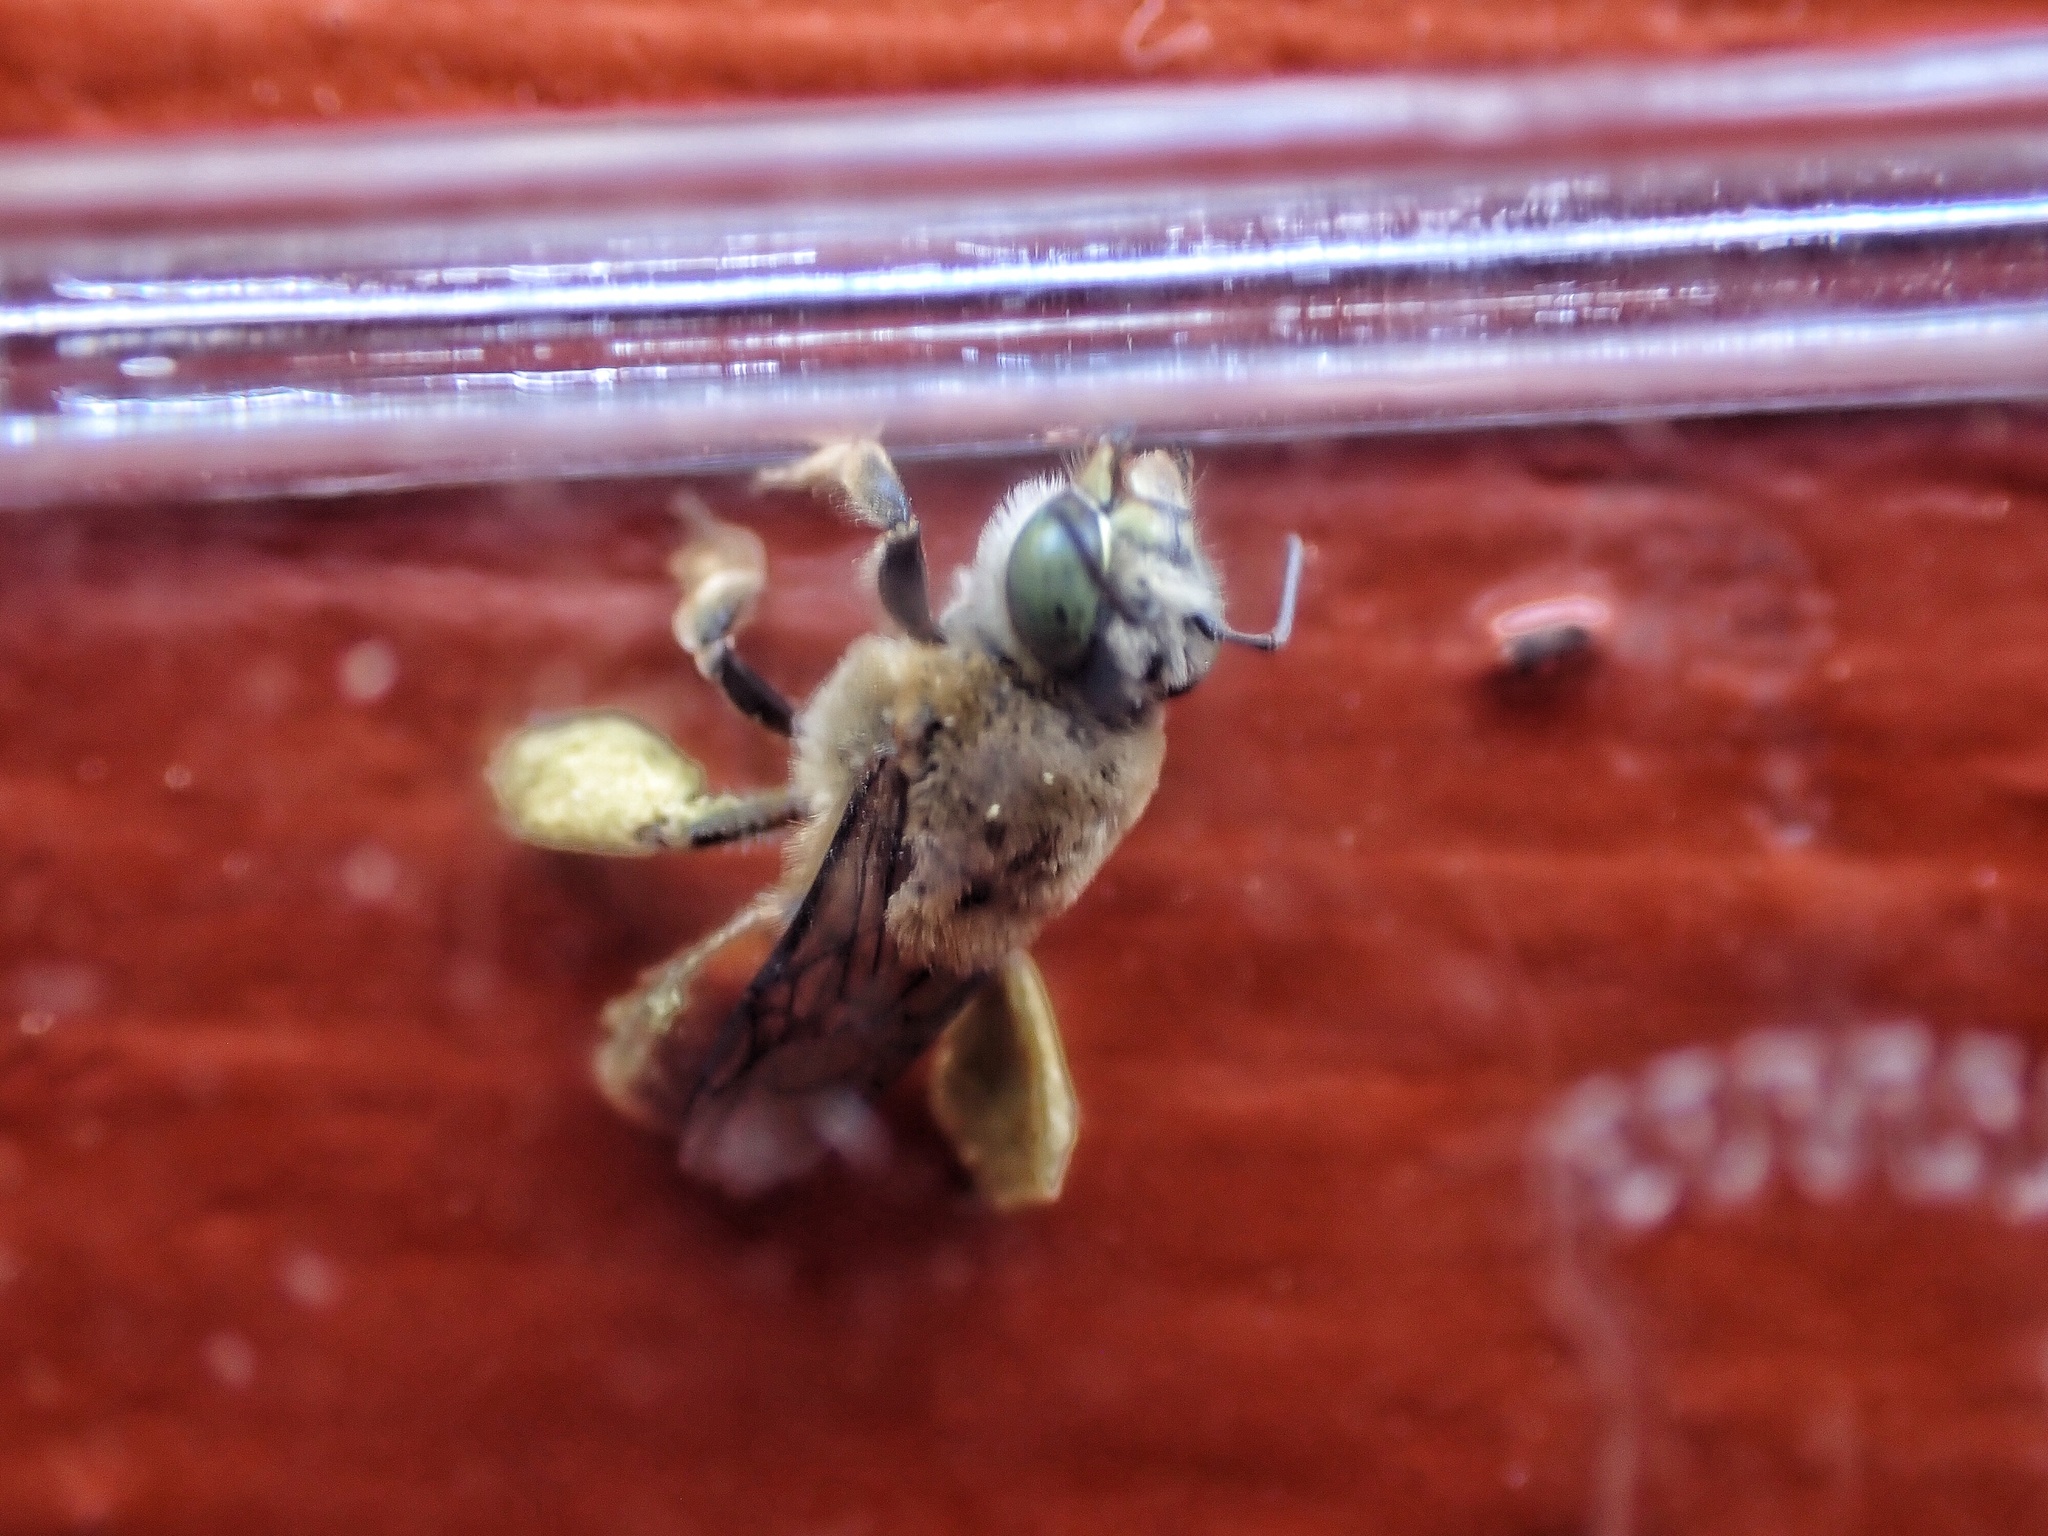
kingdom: Animalia
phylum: Arthropoda
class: Insecta
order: Hymenoptera
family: Apidae
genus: Centris
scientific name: Centris trigonoides
